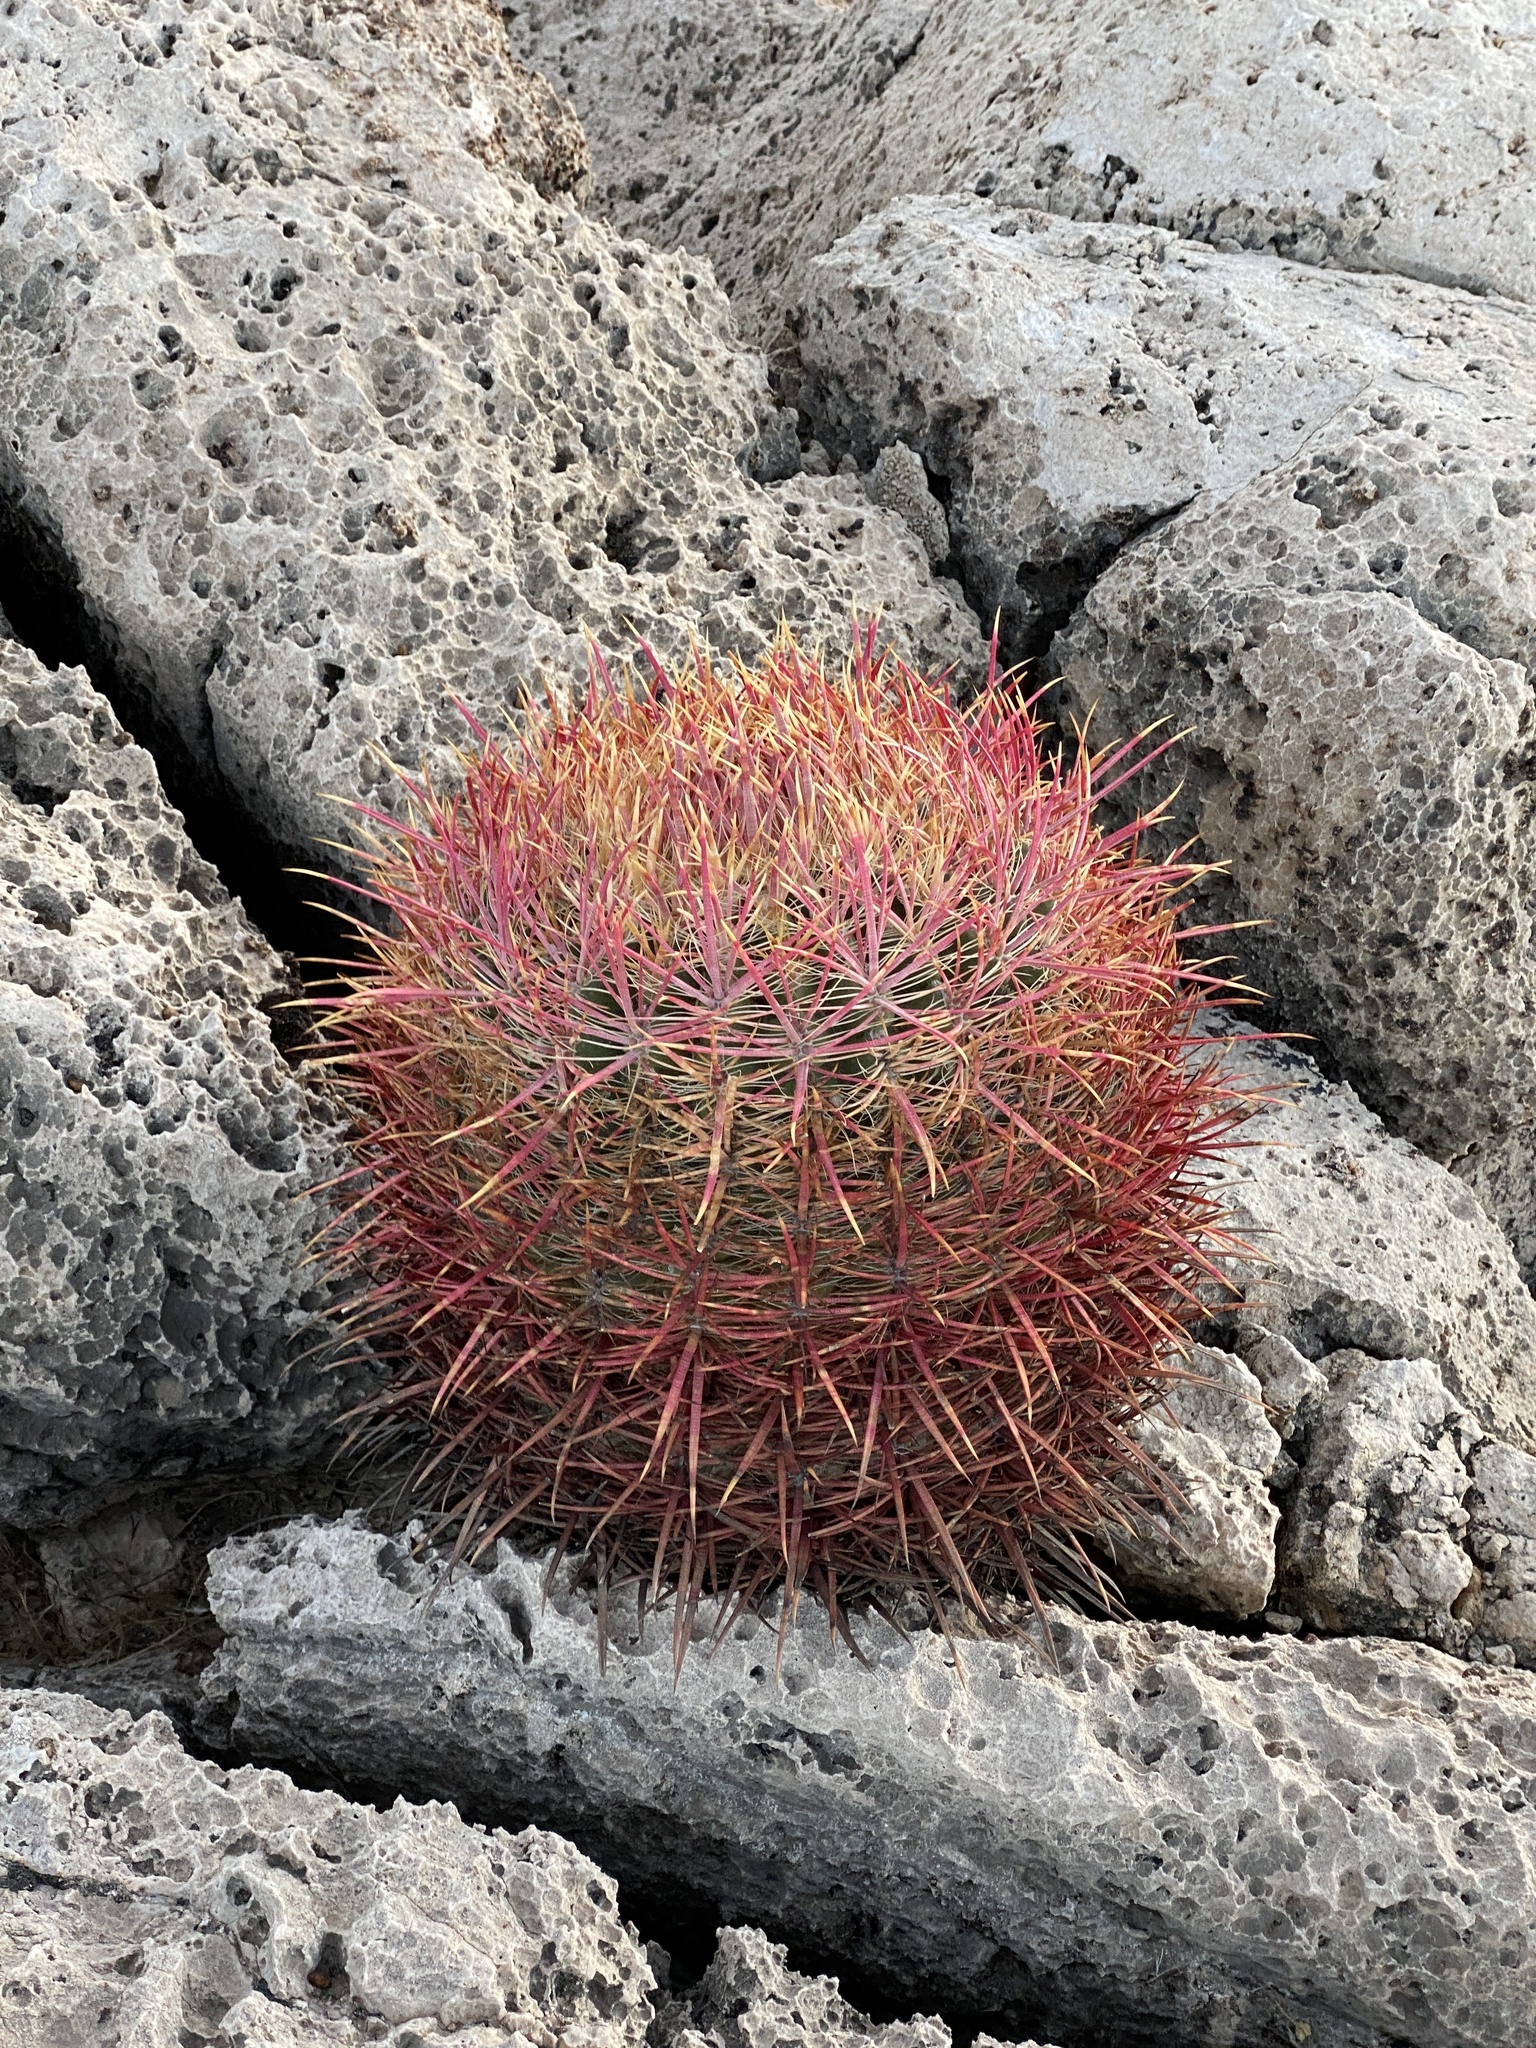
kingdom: Plantae
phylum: Tracheophyta
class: Magnoliopsida
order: Caryophyllales
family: Cactaceae
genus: Ferocactus
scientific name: Ferocactus cylindraceus
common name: California barrel cactus
